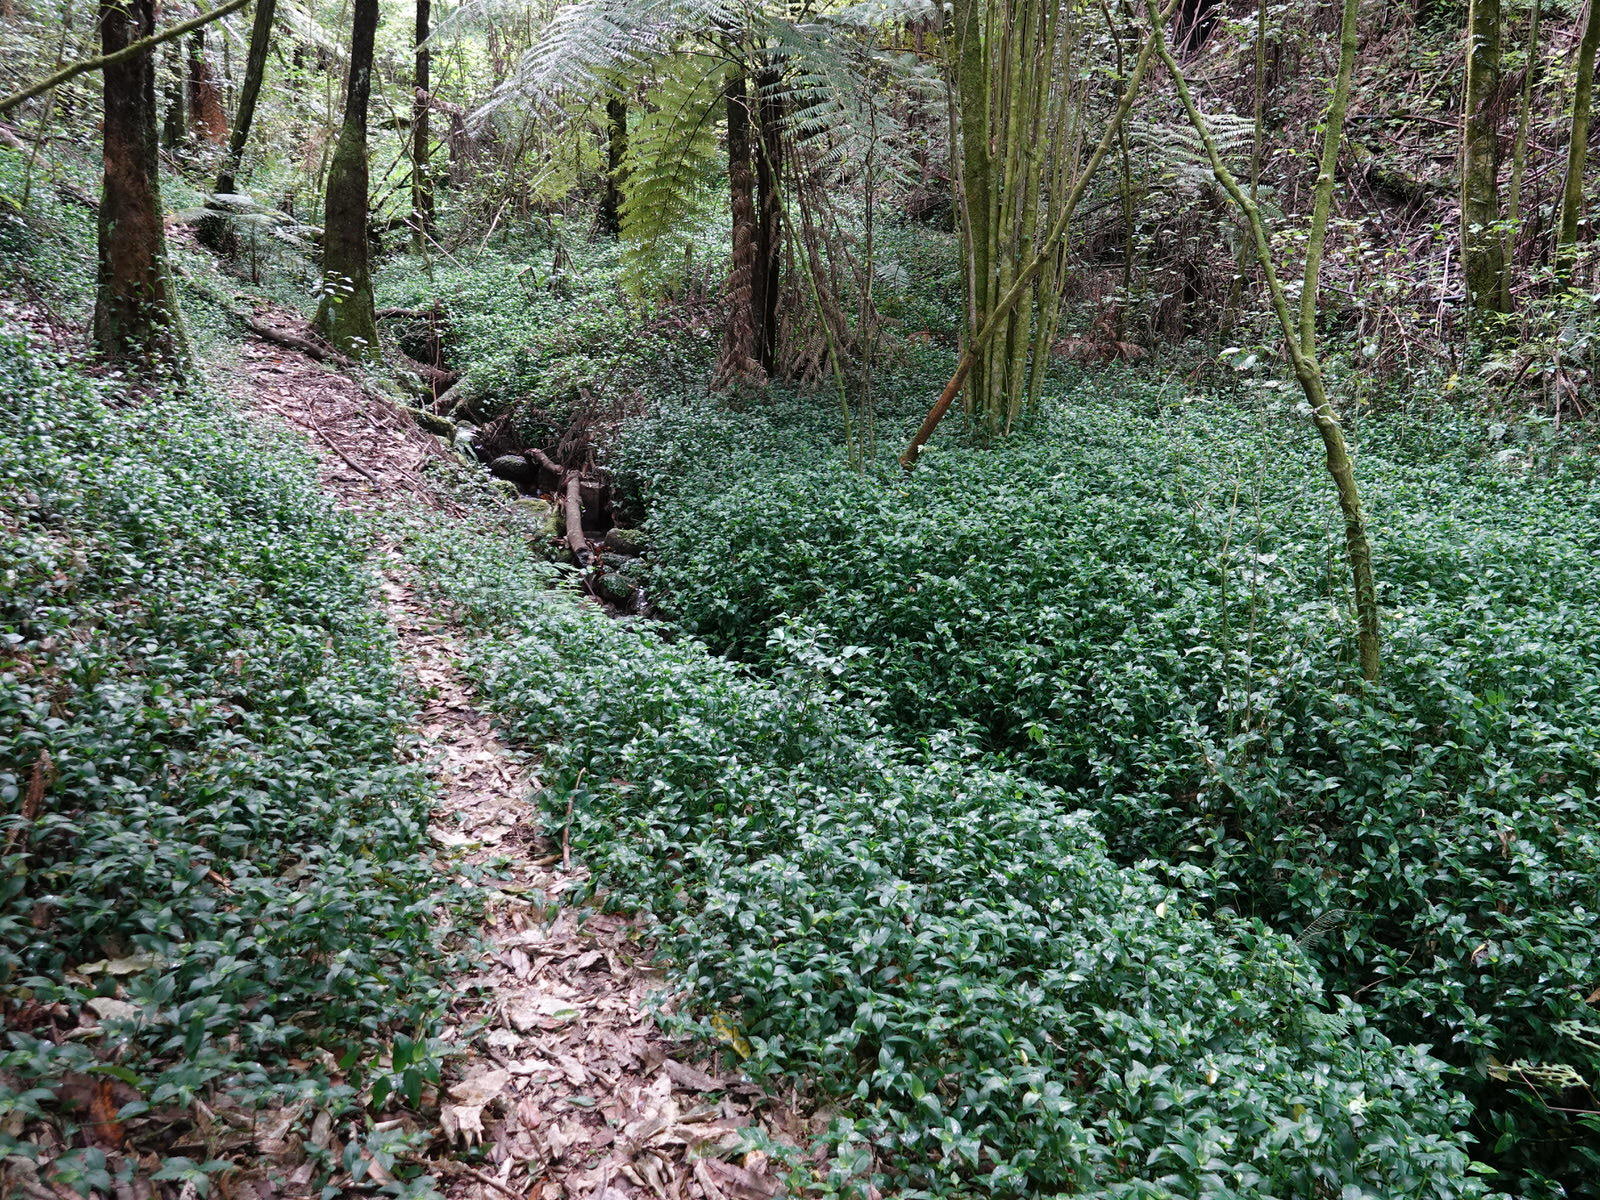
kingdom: Plantae
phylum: Tracheophyta
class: Liliopsida
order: Commelinales
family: Commelinaceae
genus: Tradescantia
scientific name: Tradescantia fluminensis
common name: Wandering-jew
